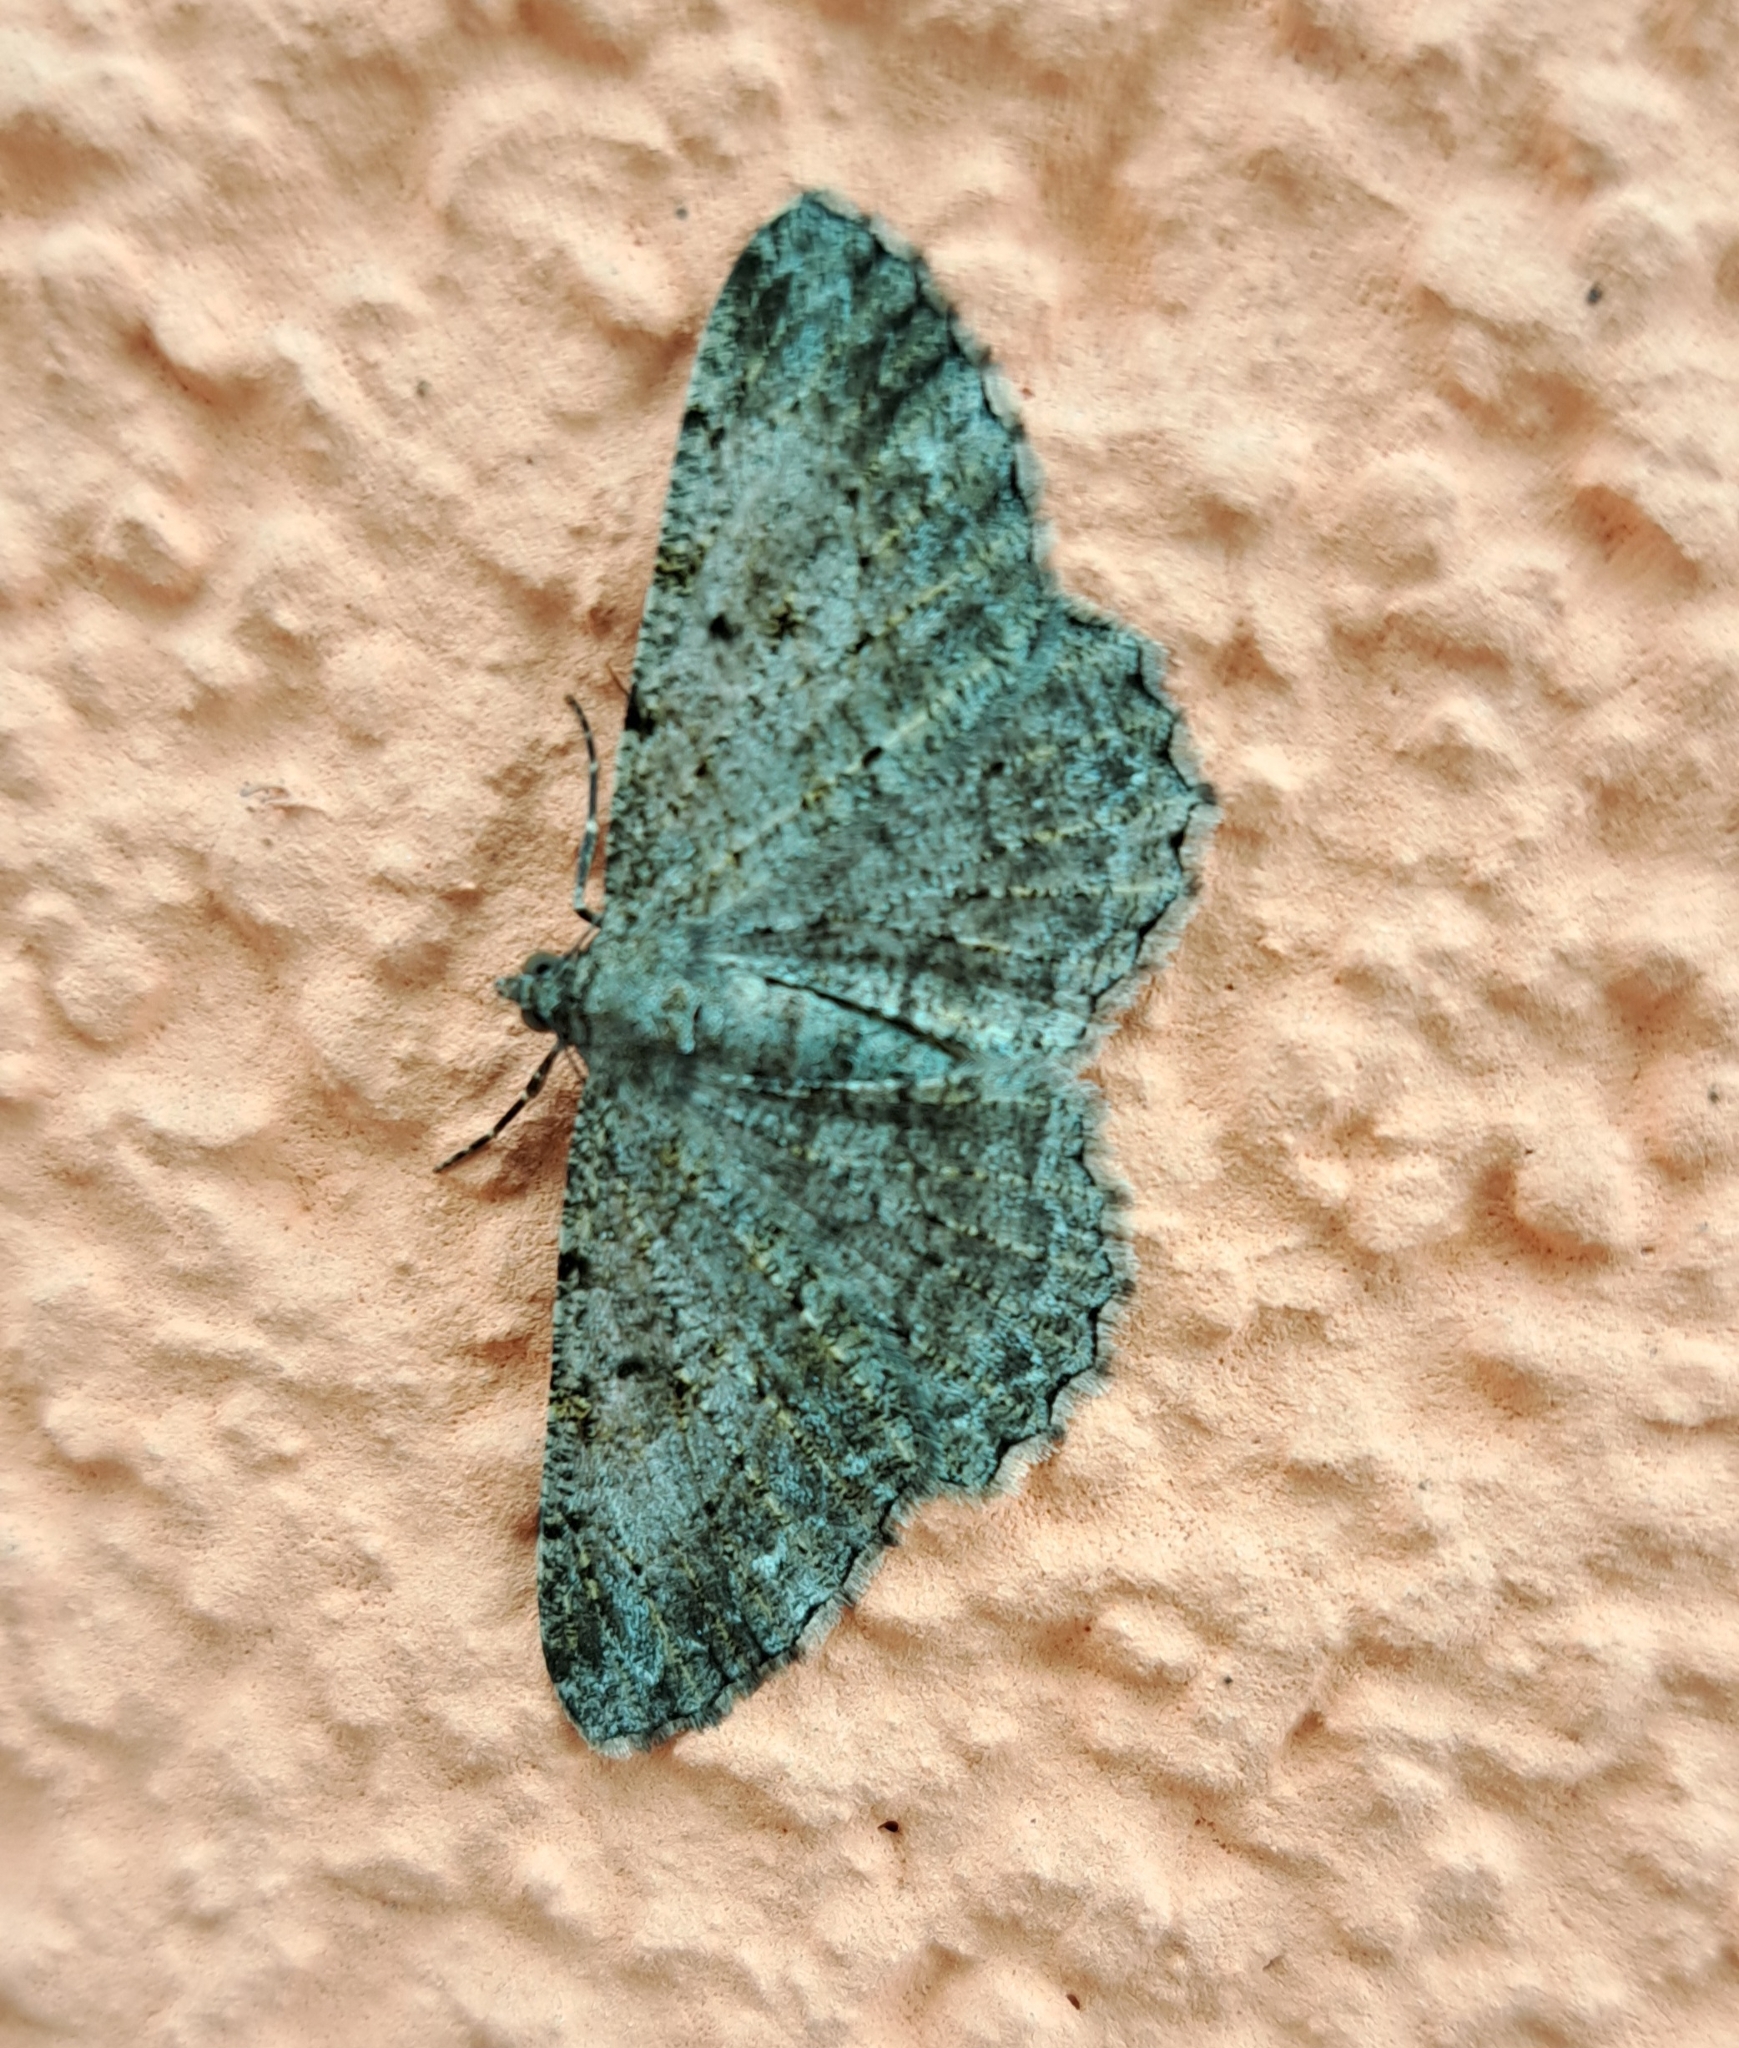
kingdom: Animalia
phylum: Arthropoda
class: Insecta
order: Lepidoptera
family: Geometridae
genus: Peribatodes
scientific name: Peribatodes rhomboidaria
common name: Willow beauty
